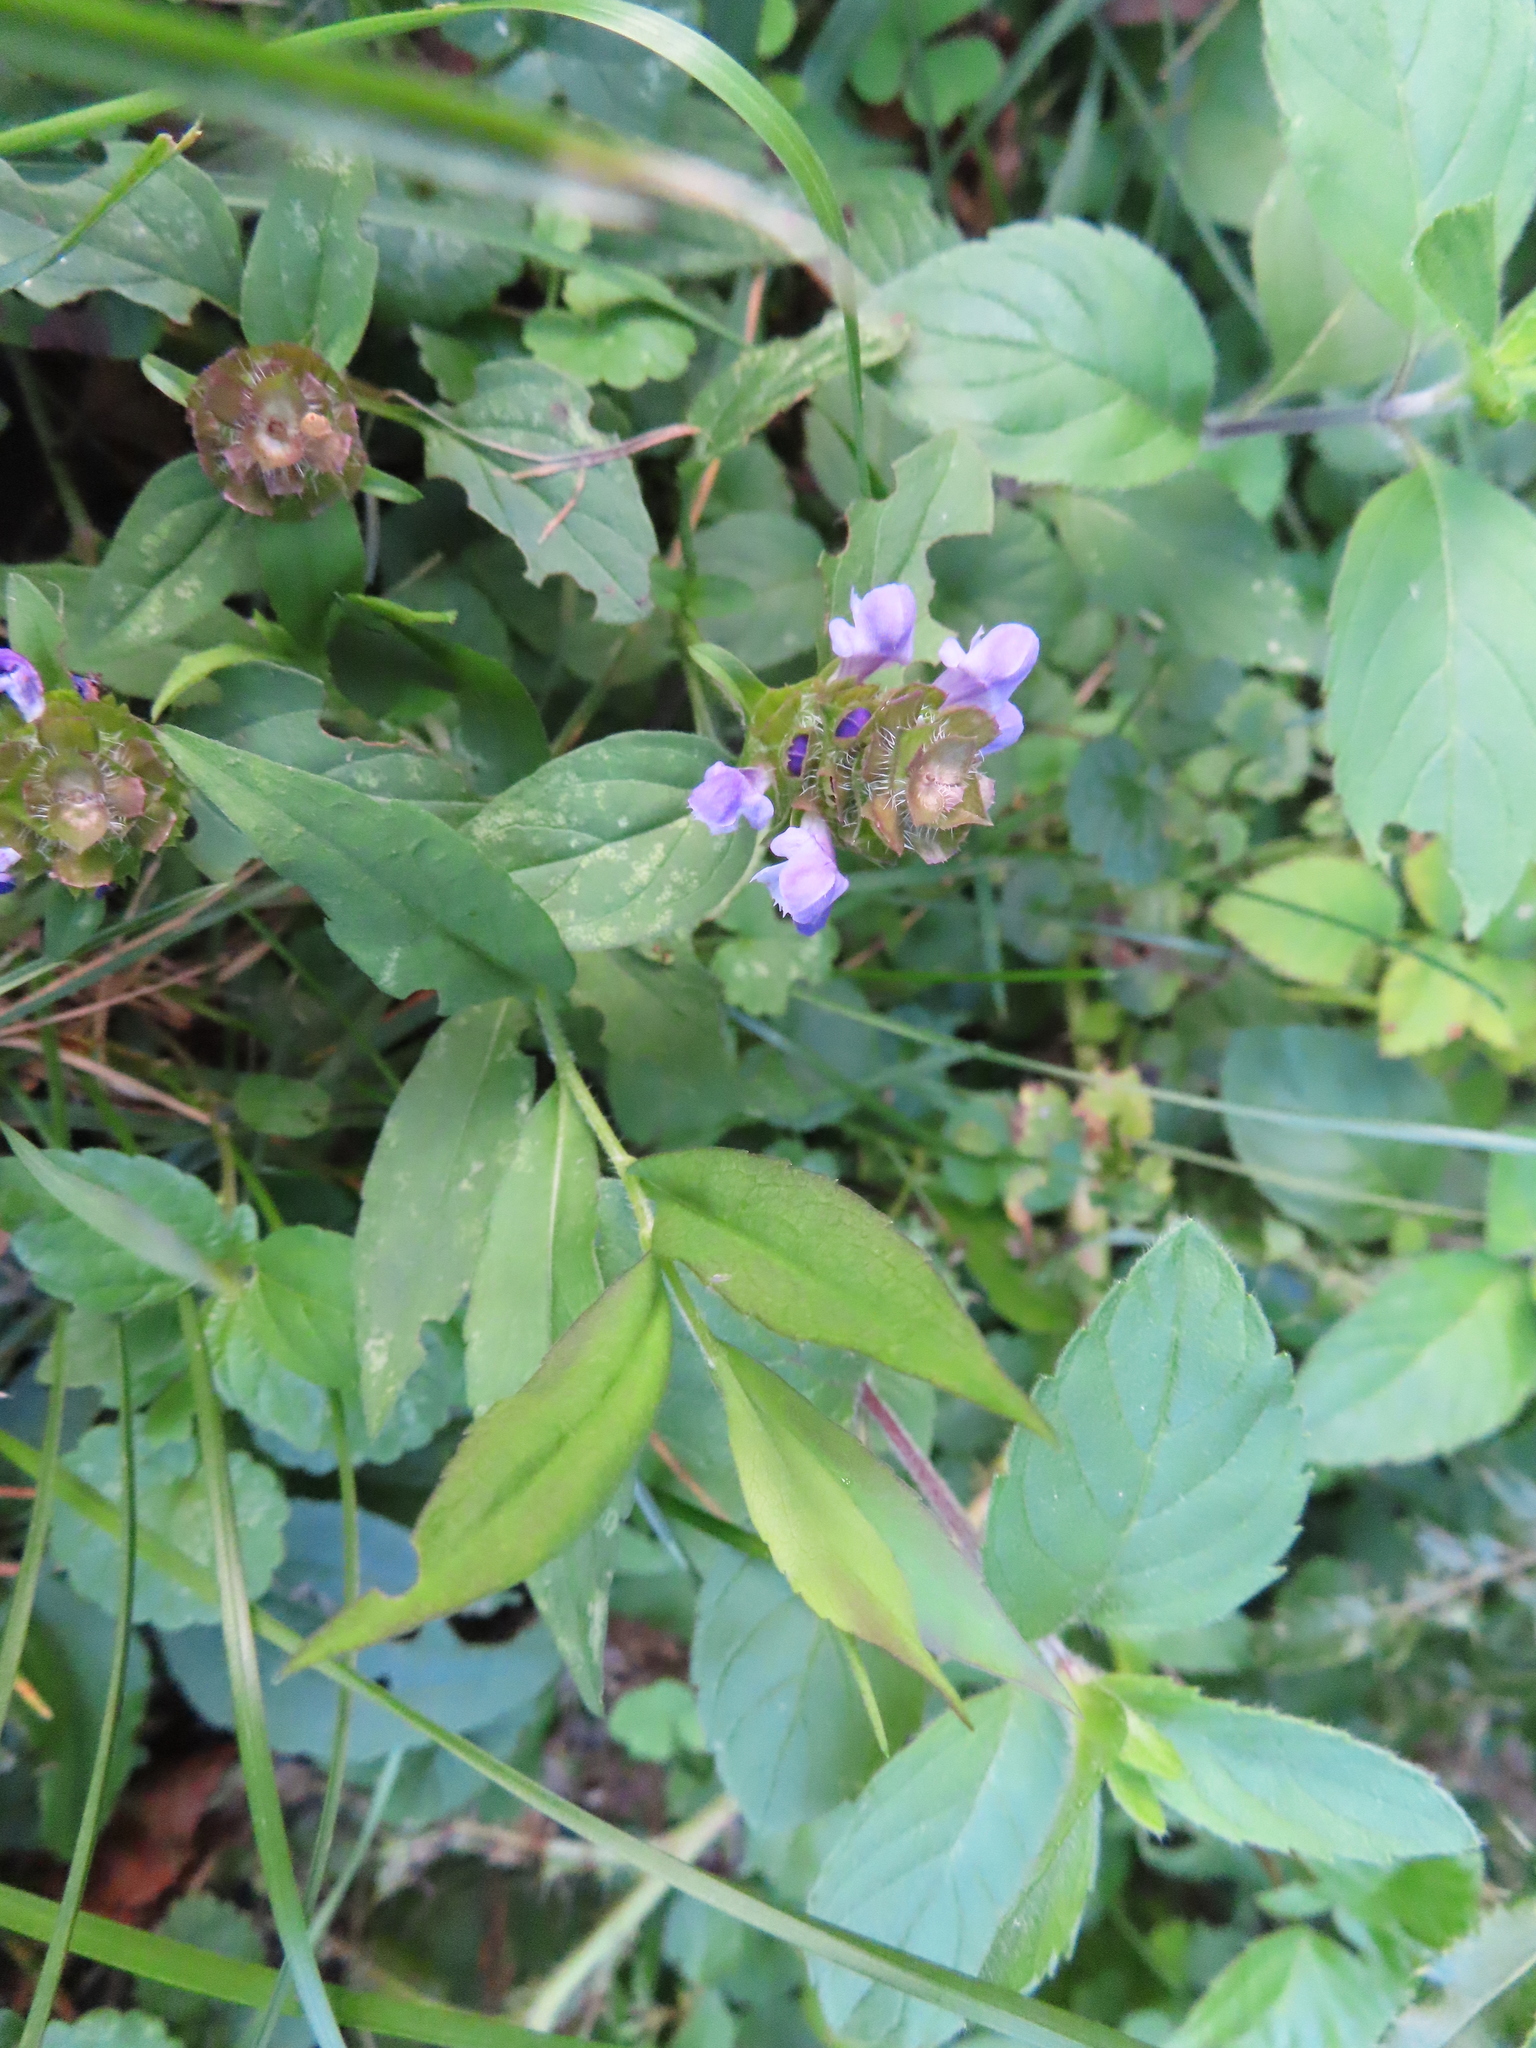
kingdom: Plantae
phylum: Tracheophyta
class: Magnoliopsida
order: Lamiales
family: Lamiaceae
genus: Prunella
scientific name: Prunella vulgaris
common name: Heal-all
